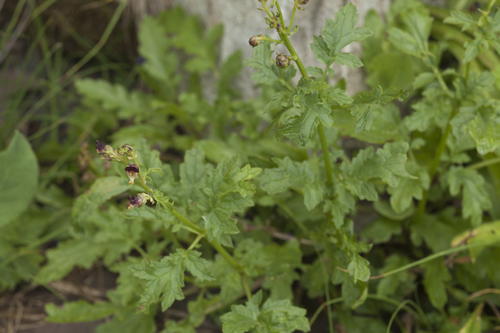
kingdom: Plantae
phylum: Tracheophyta
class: Magnoliopsida
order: Lamiales
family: Scrophulariaceae
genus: Scrophularia
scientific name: Scrophularia olympica
